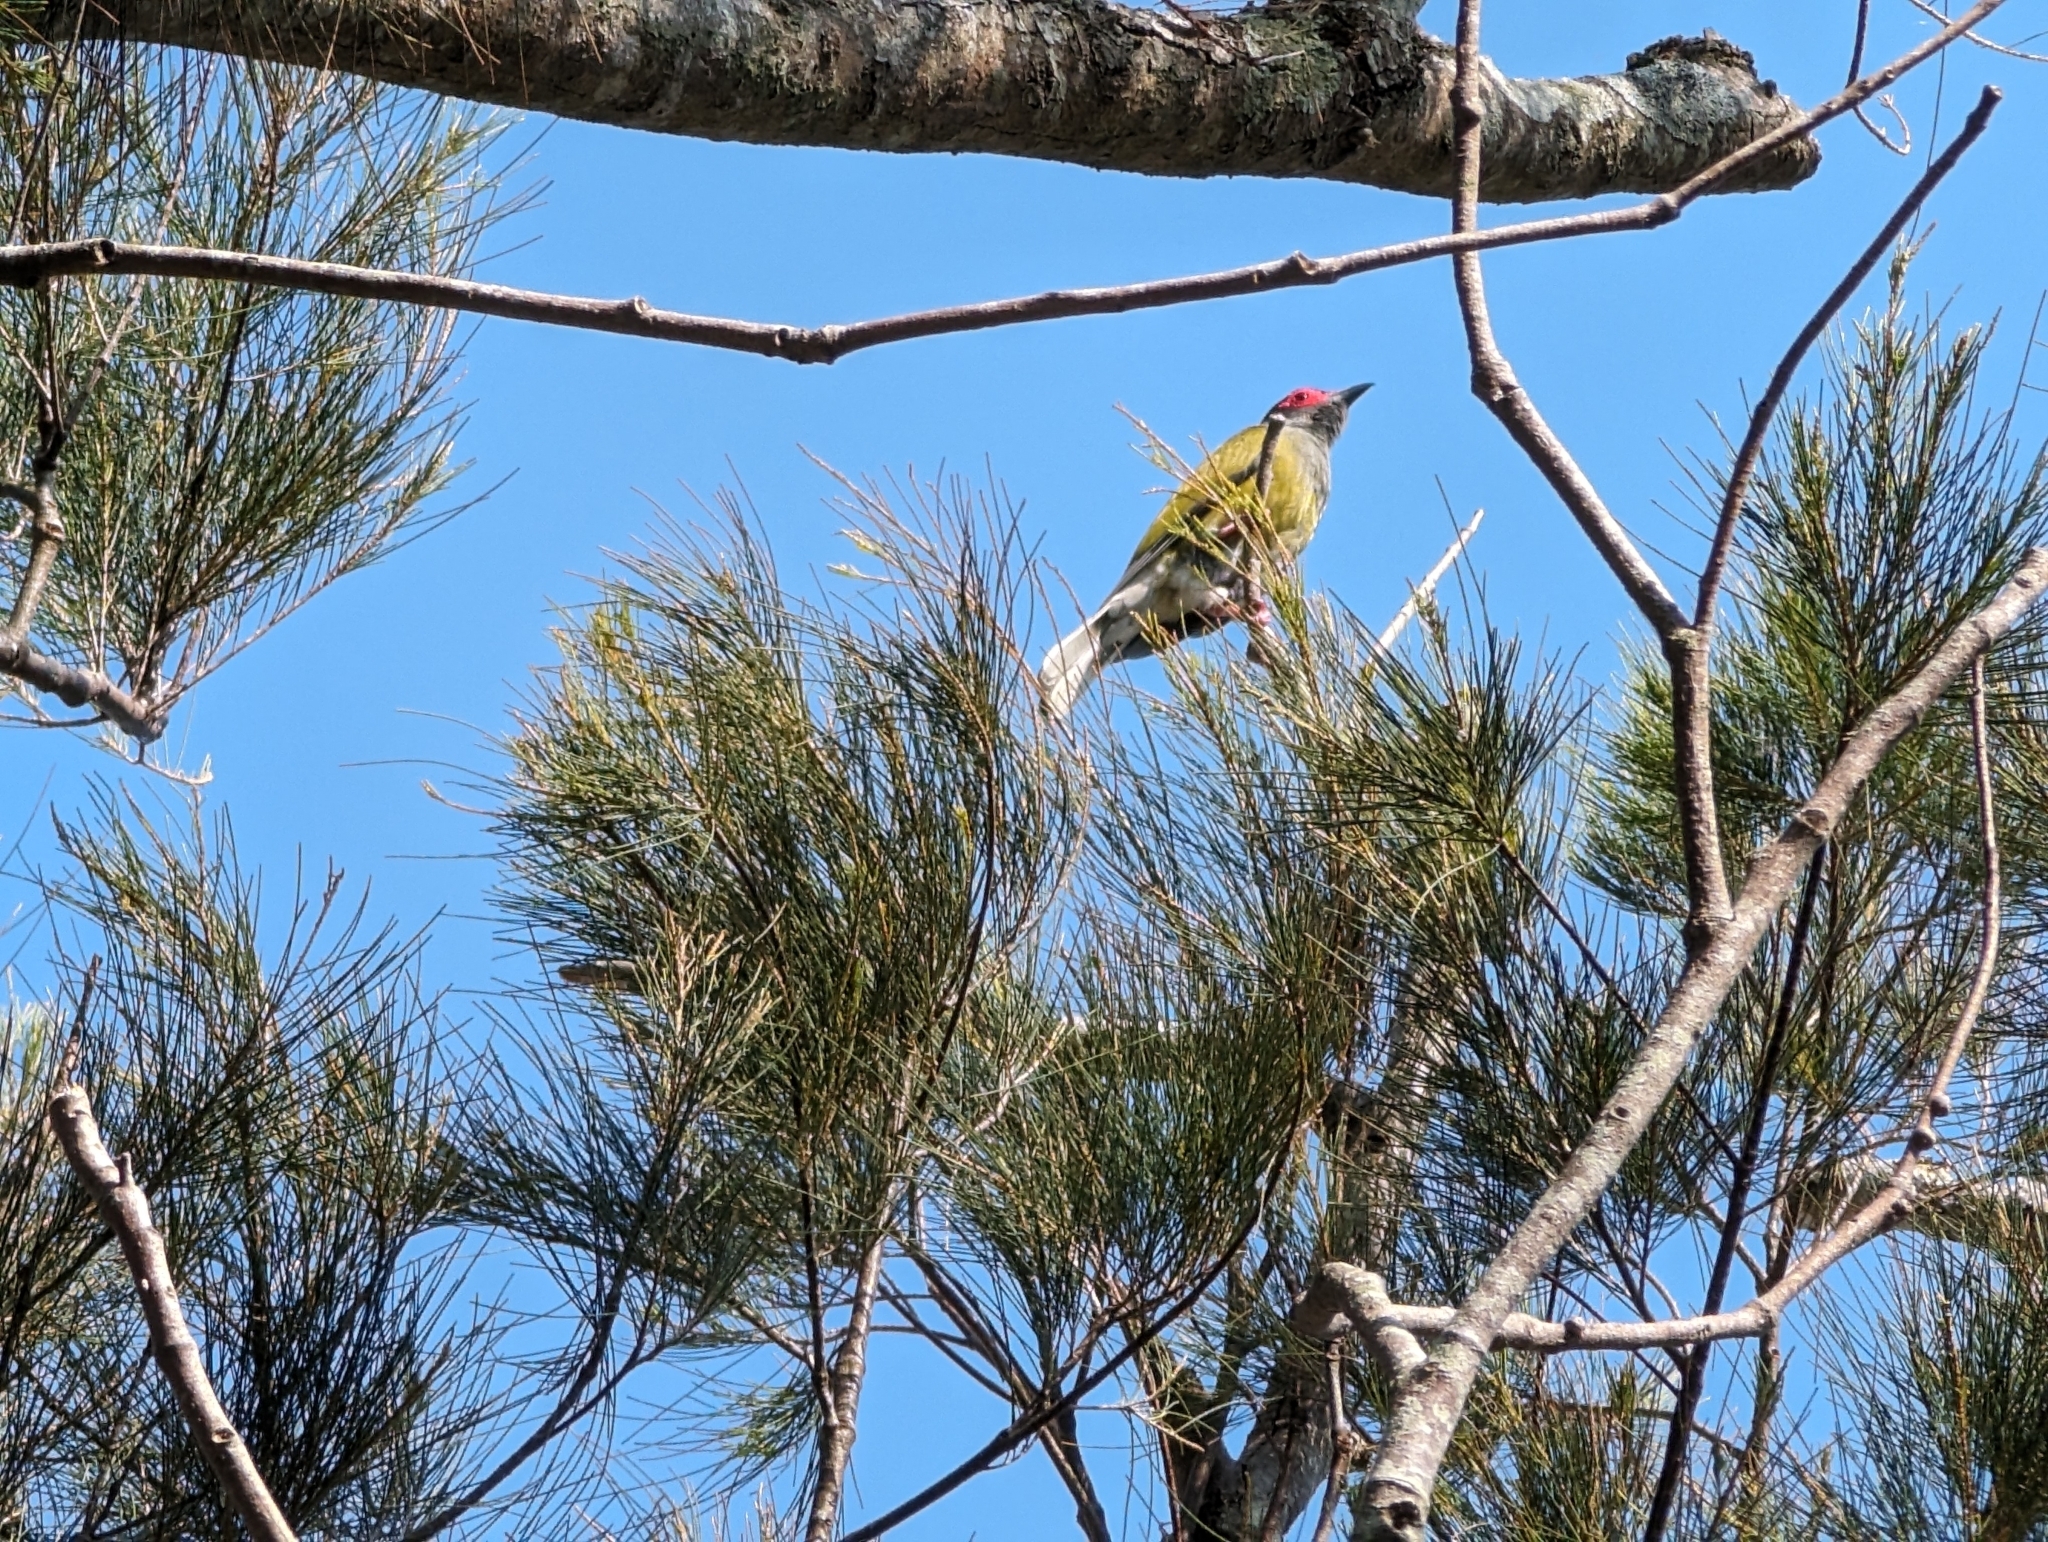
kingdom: Animalia
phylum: Chordata
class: Aves
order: Passeriformes
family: Oriolidae
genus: Sphecotheres
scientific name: Sphecotheres vieilloti
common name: Australasian figbird
